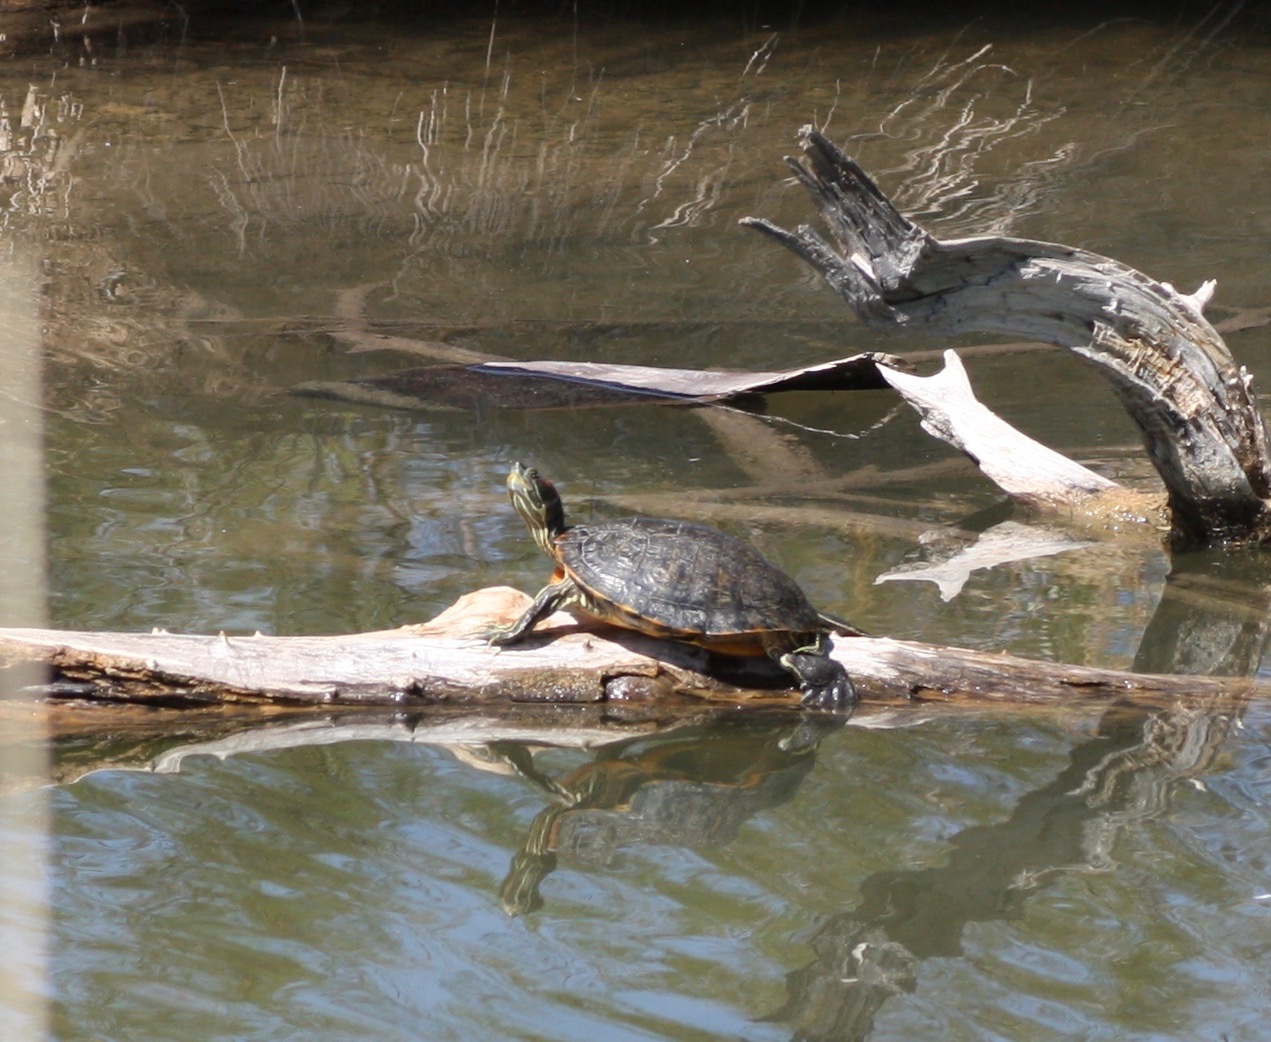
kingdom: Animalia
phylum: Chordata
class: Testudines
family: Emydidae
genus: Trachemys
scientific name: Trachemys scripta
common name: Slider
